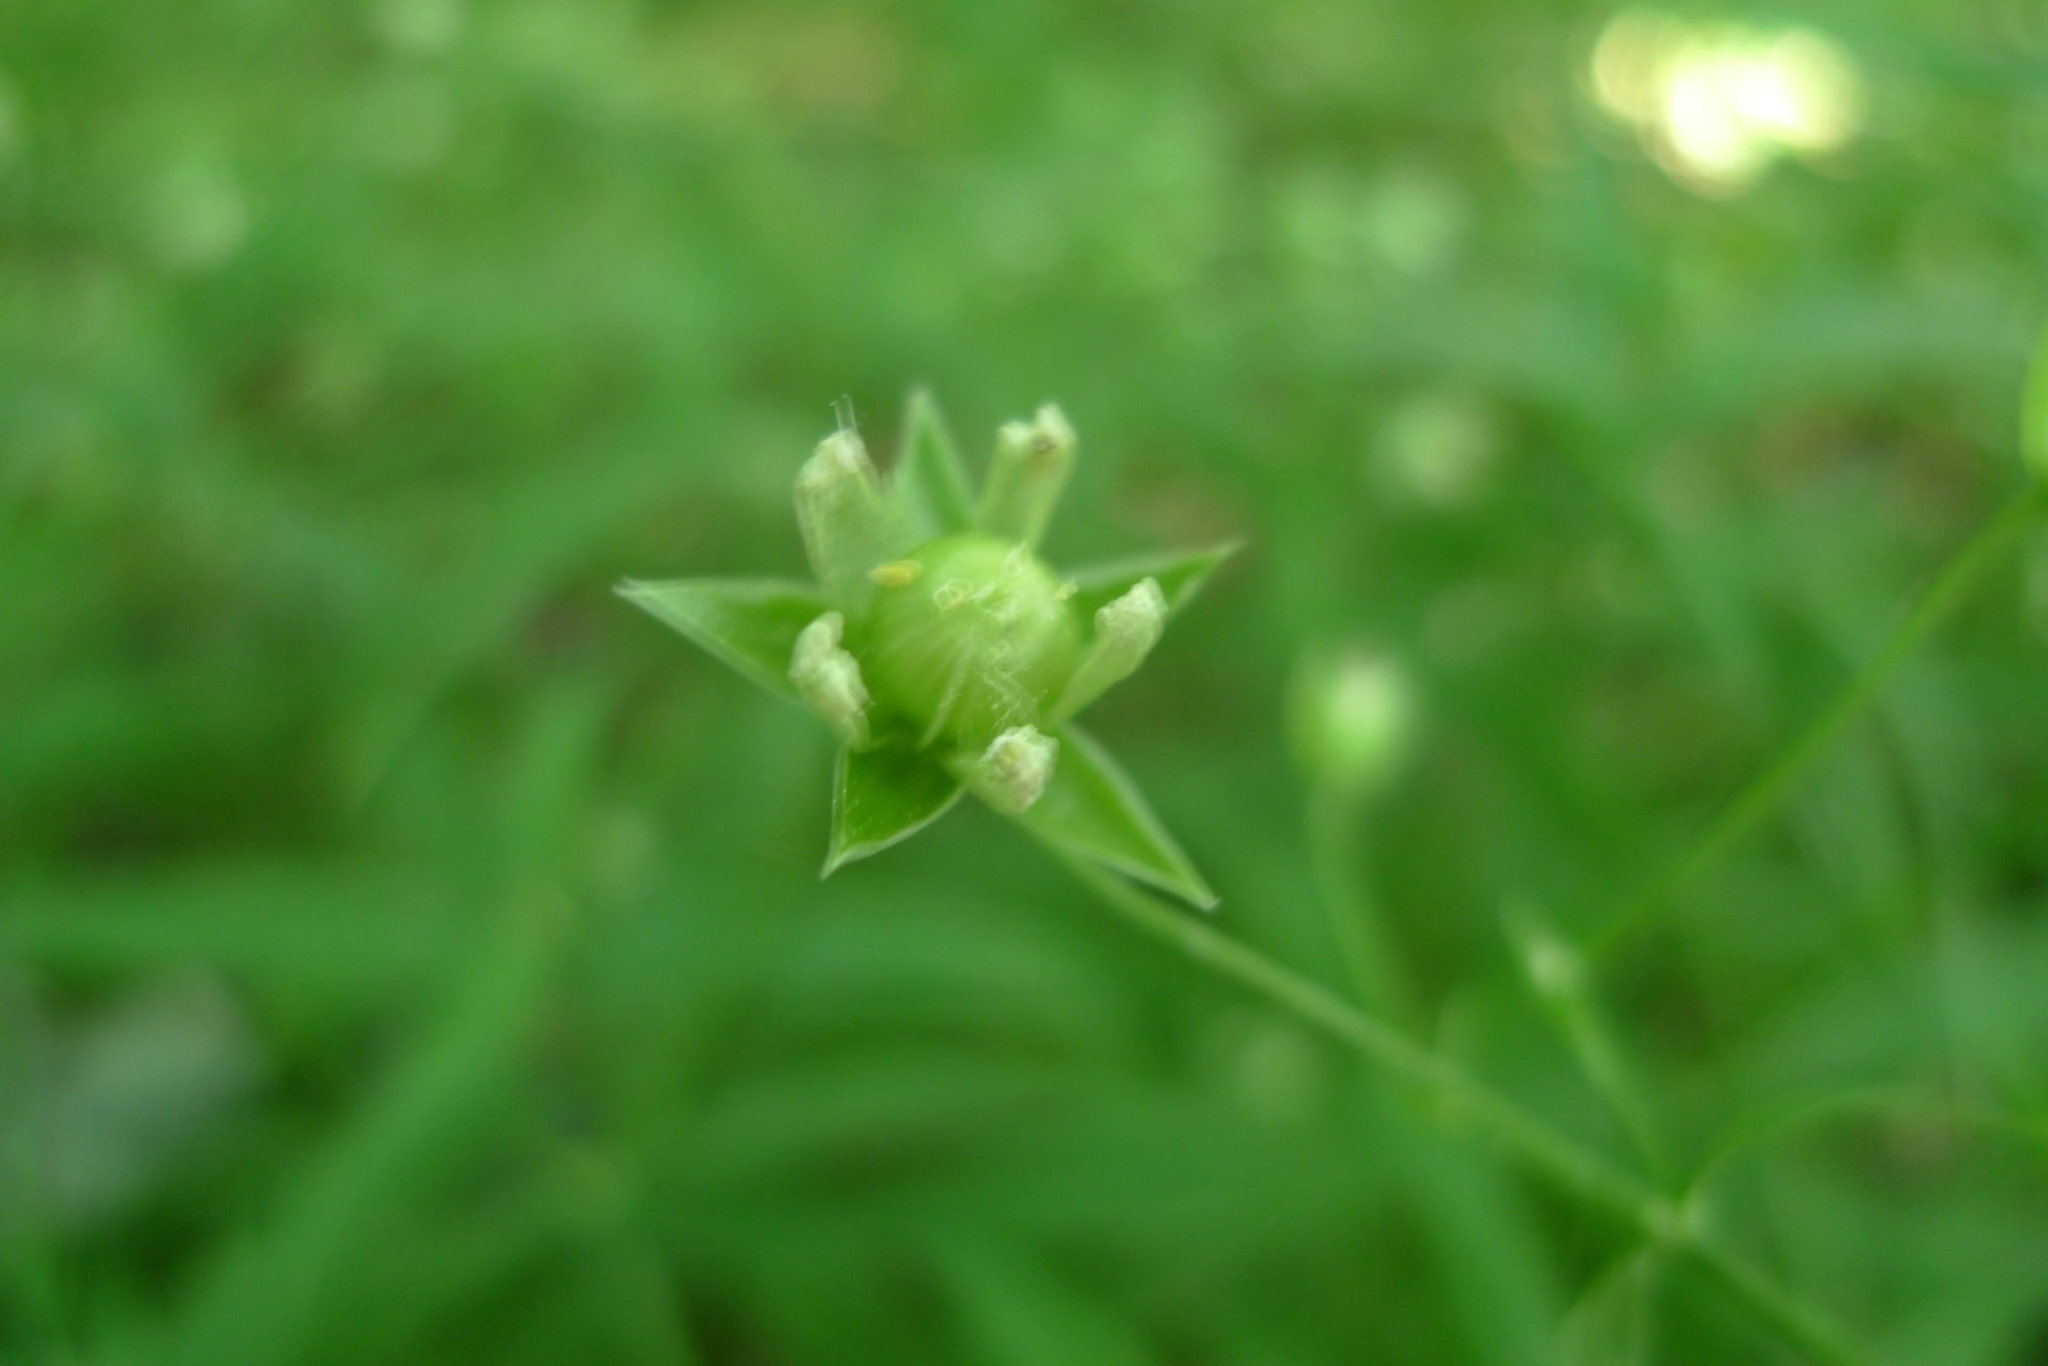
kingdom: Plantae
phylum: Tracheophyta
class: Magnoliopsida
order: Caryophyllales
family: Caryophyllaceae
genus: Rabelera
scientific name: Rabelera holostea
